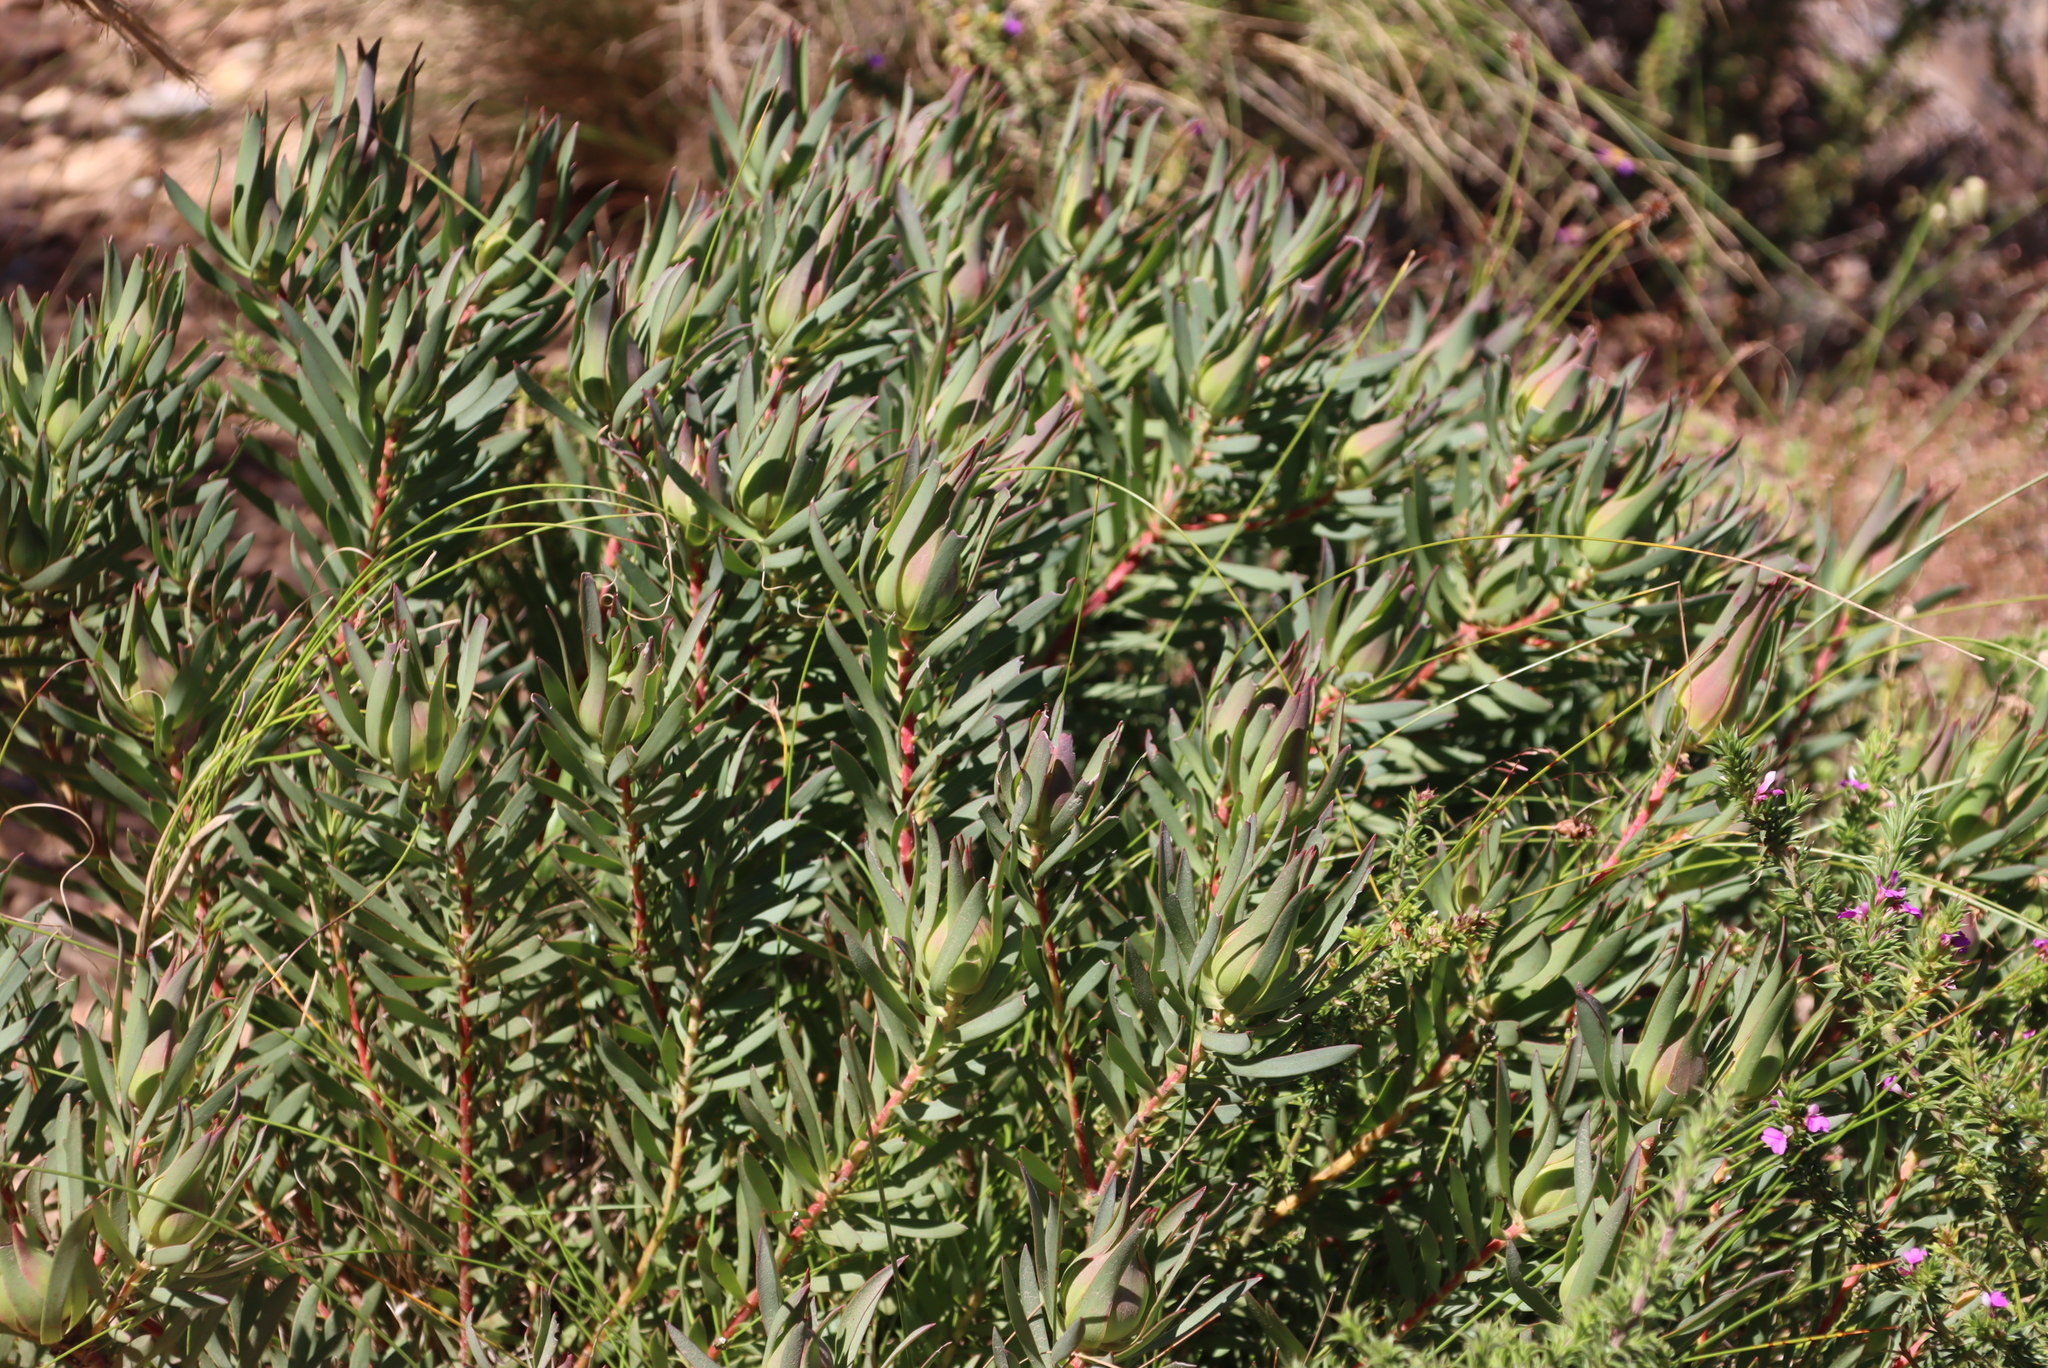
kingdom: Plantae
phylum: Tracheophyta
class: Magnoliopsida
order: Proteales
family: Proteaceae
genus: Leucadendron
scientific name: Leucadendron salignum
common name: Common sunshine conebush
